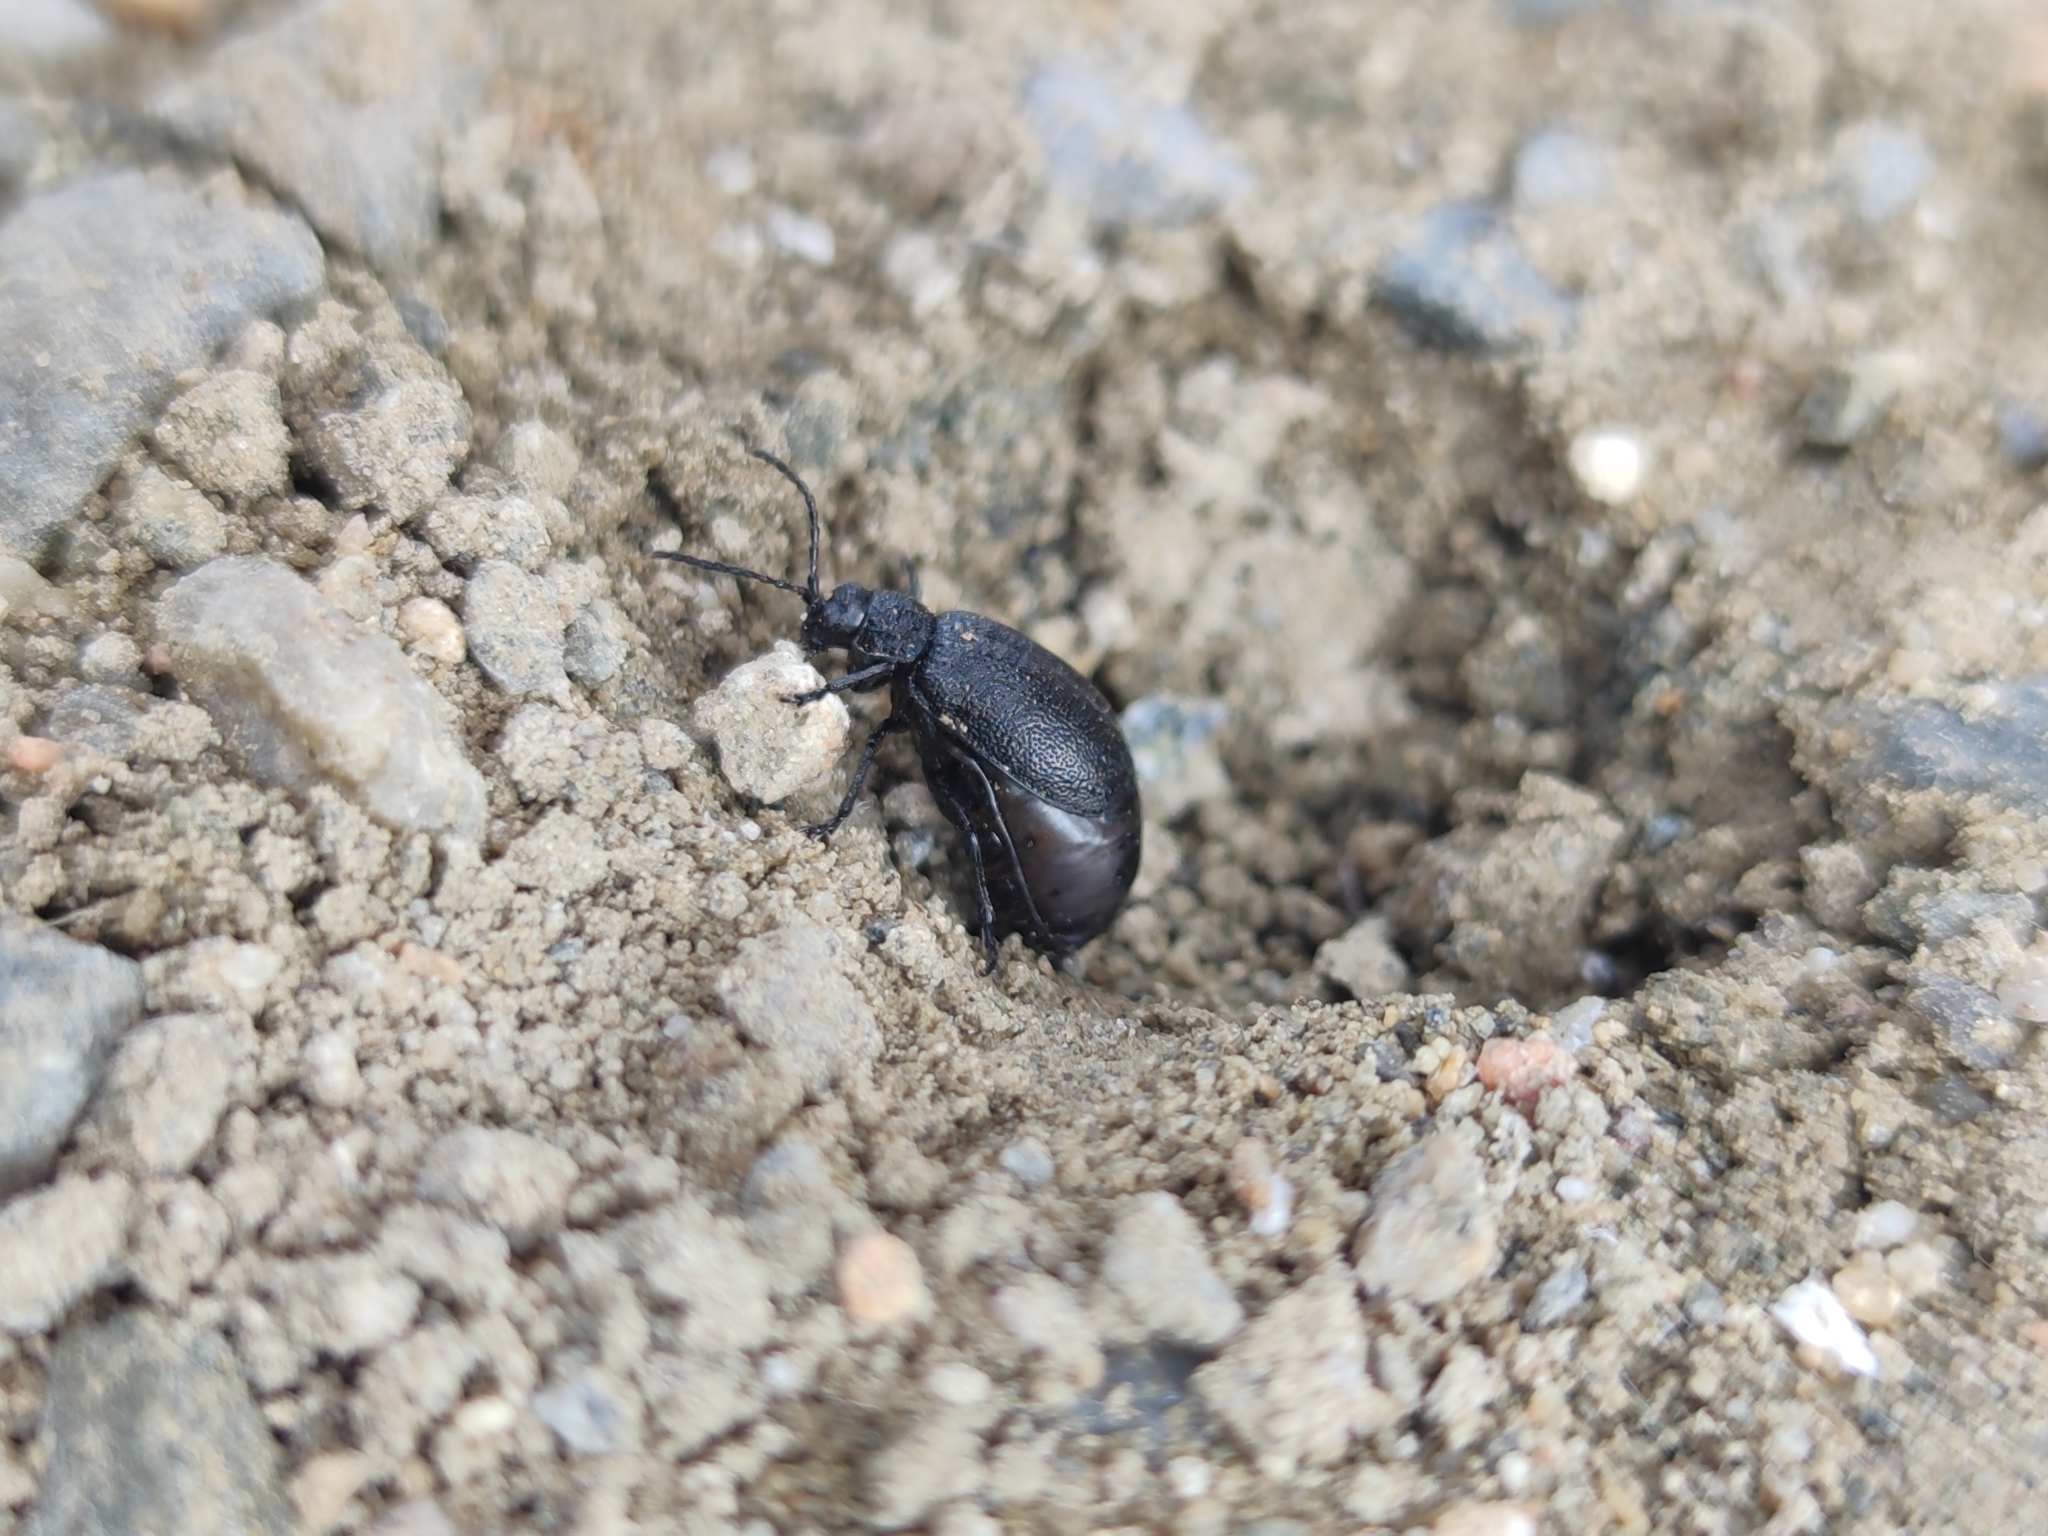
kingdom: Animalia
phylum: Arthropoda
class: Insecta
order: Coleoptera
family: Chrysomelidae
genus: Galeruca
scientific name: Galeruca tanaceti
